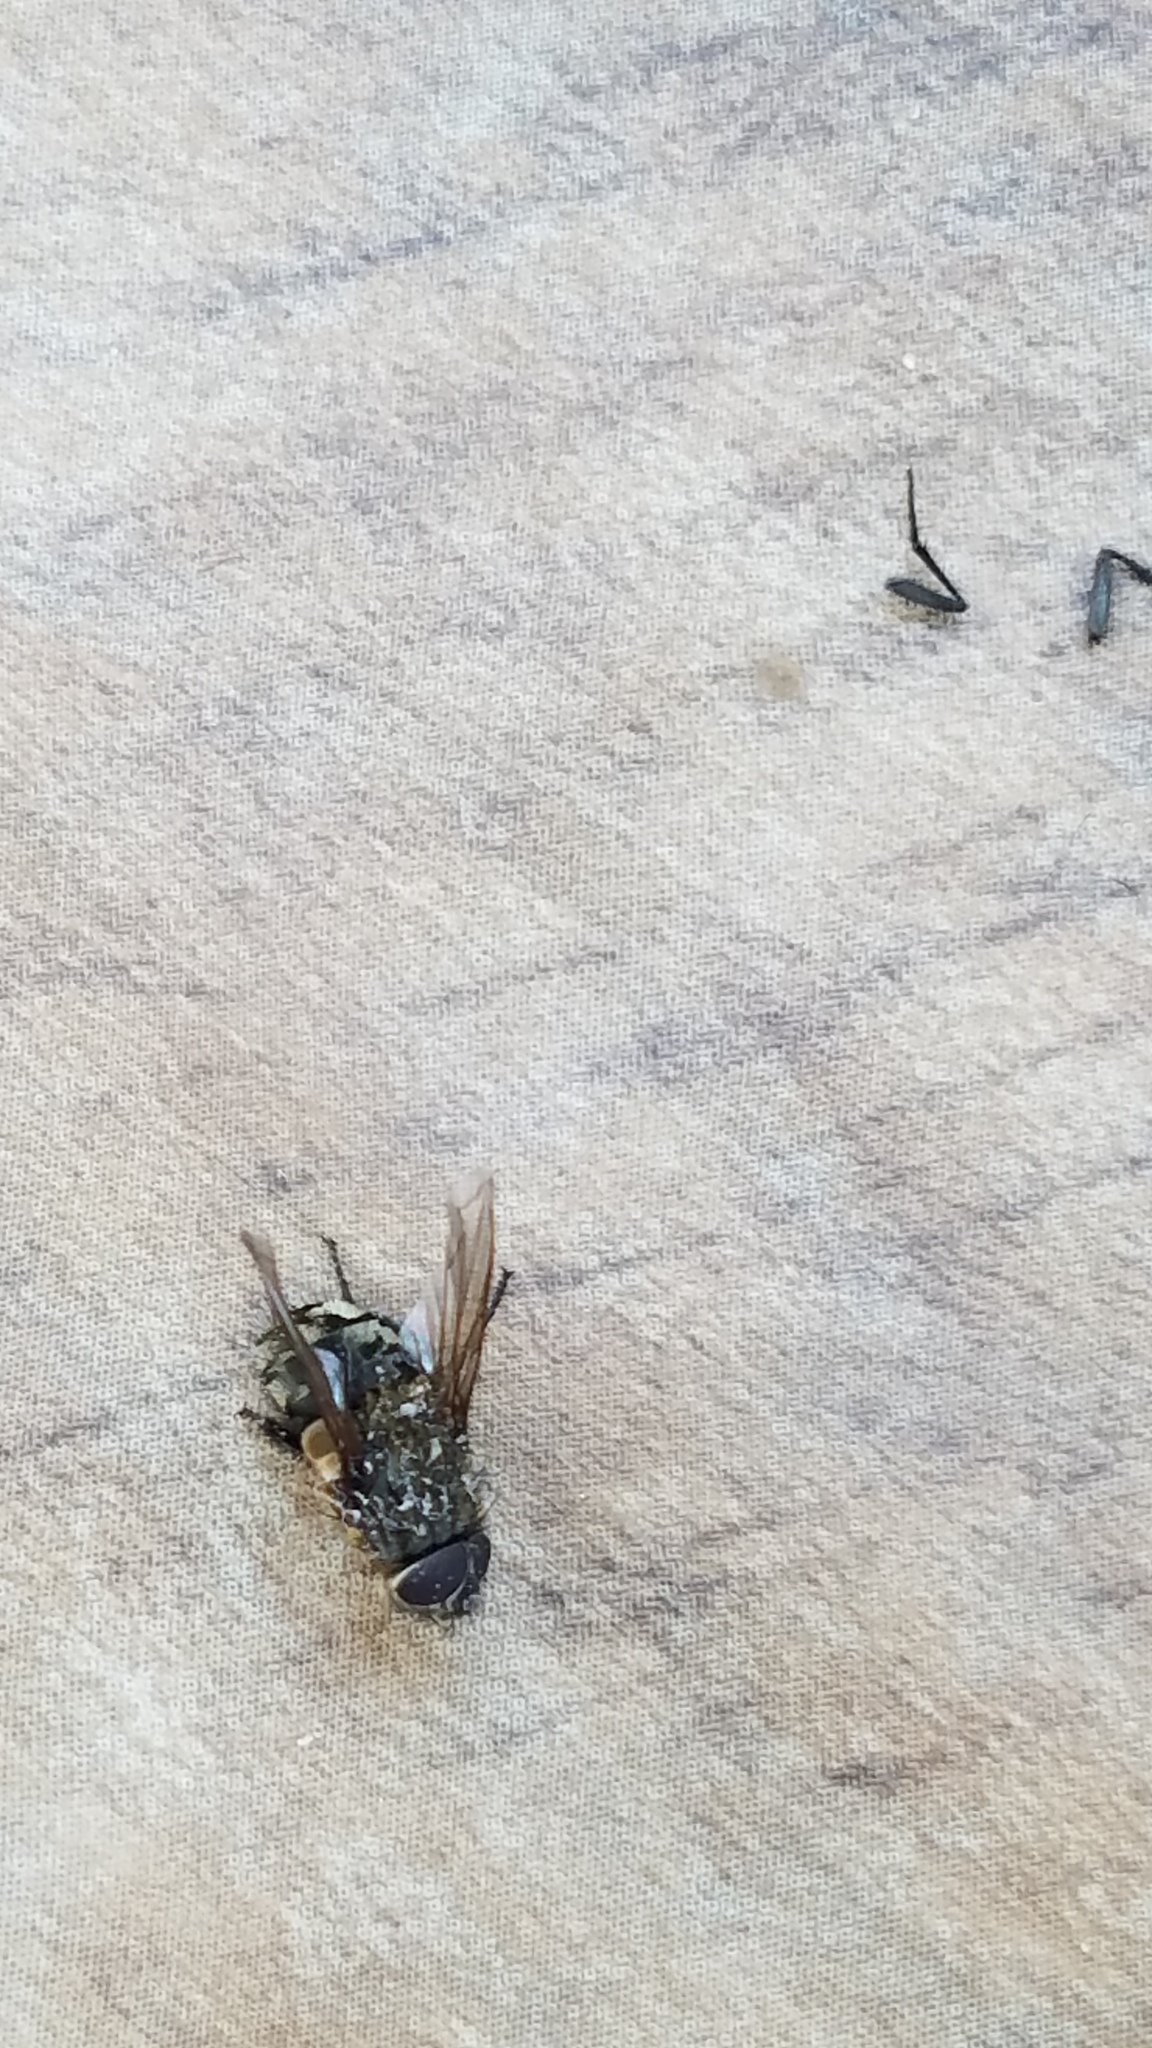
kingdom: Animalia
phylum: Arthropoda
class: Insecta
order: Diptera
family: Polleniidae
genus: Pollenia
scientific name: Pollenia
